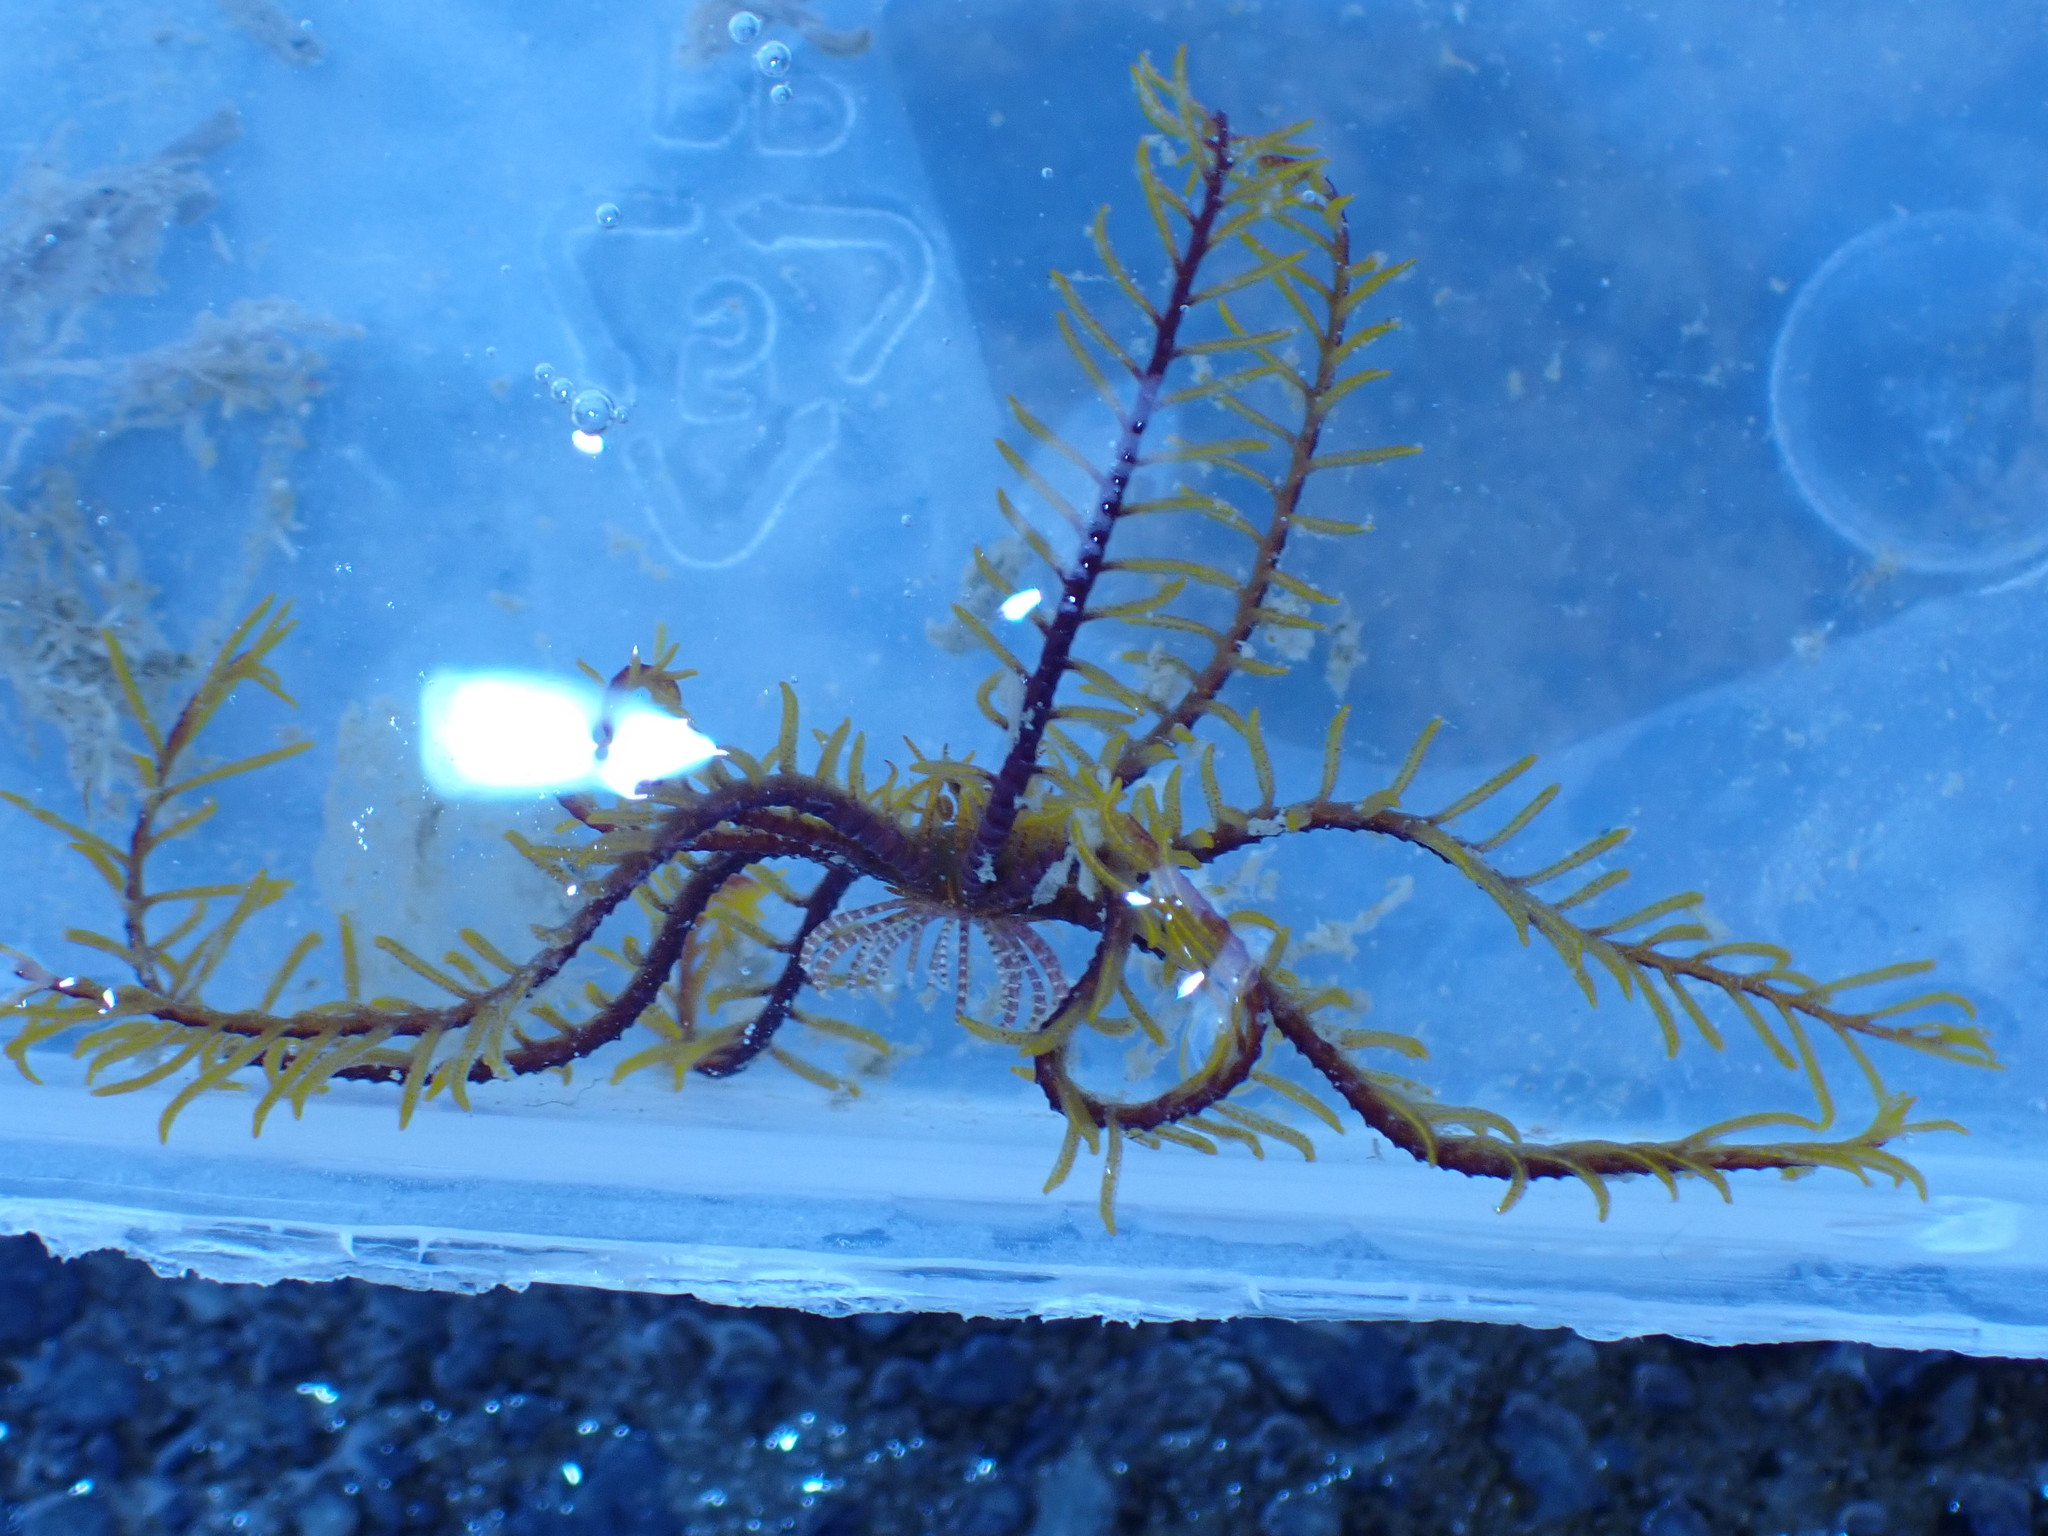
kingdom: Animalia
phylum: Echinodermata
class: Crinoidea
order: Comatulida
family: Comatulidae
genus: Cenolia
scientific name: Cenolia trichoptera
